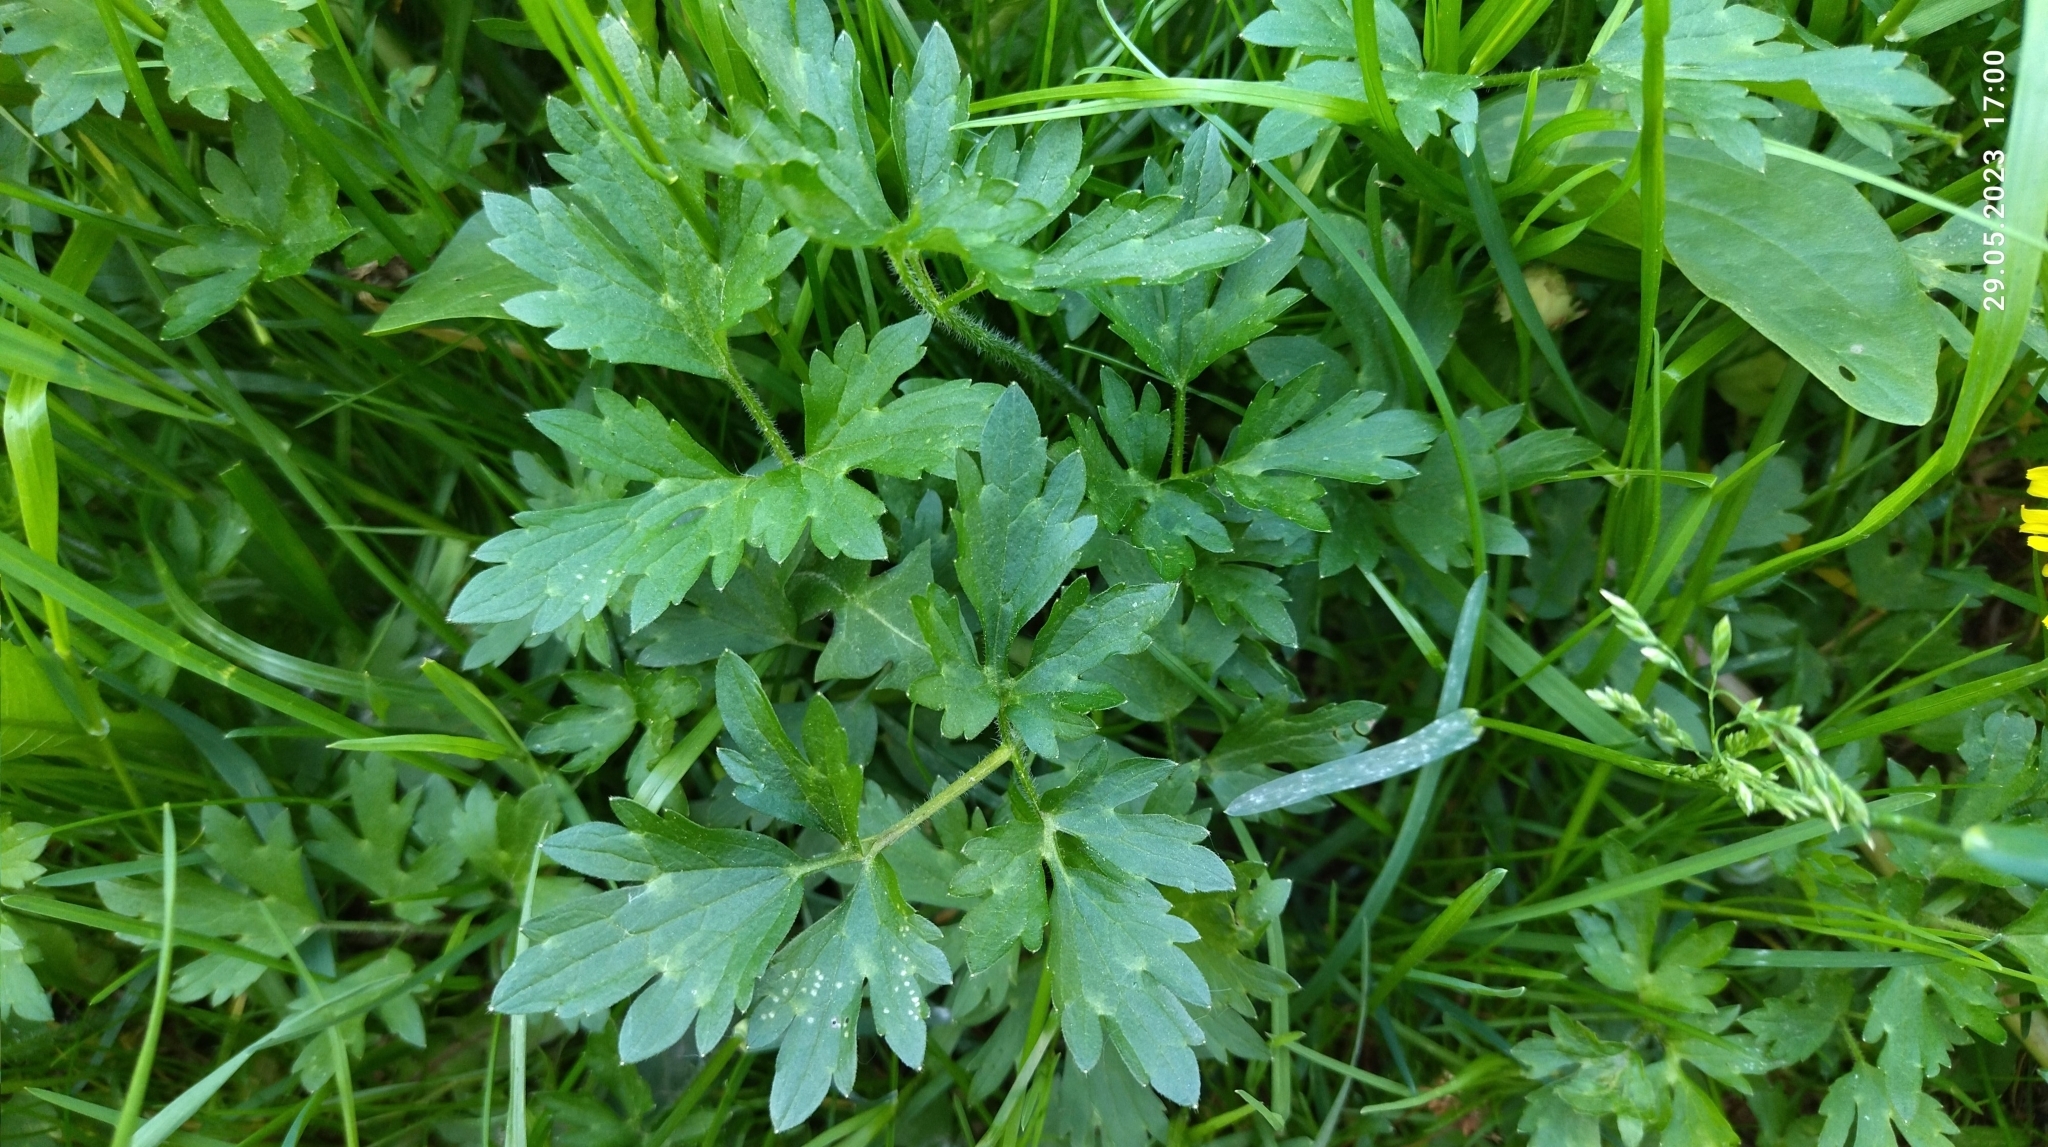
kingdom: Plantae
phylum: Tracheophyta
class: Magnoliopsida
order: Ranunculales
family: Ranunculaceae
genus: Ranunculus
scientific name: Ranunculus repens
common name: Creeping buttercup
